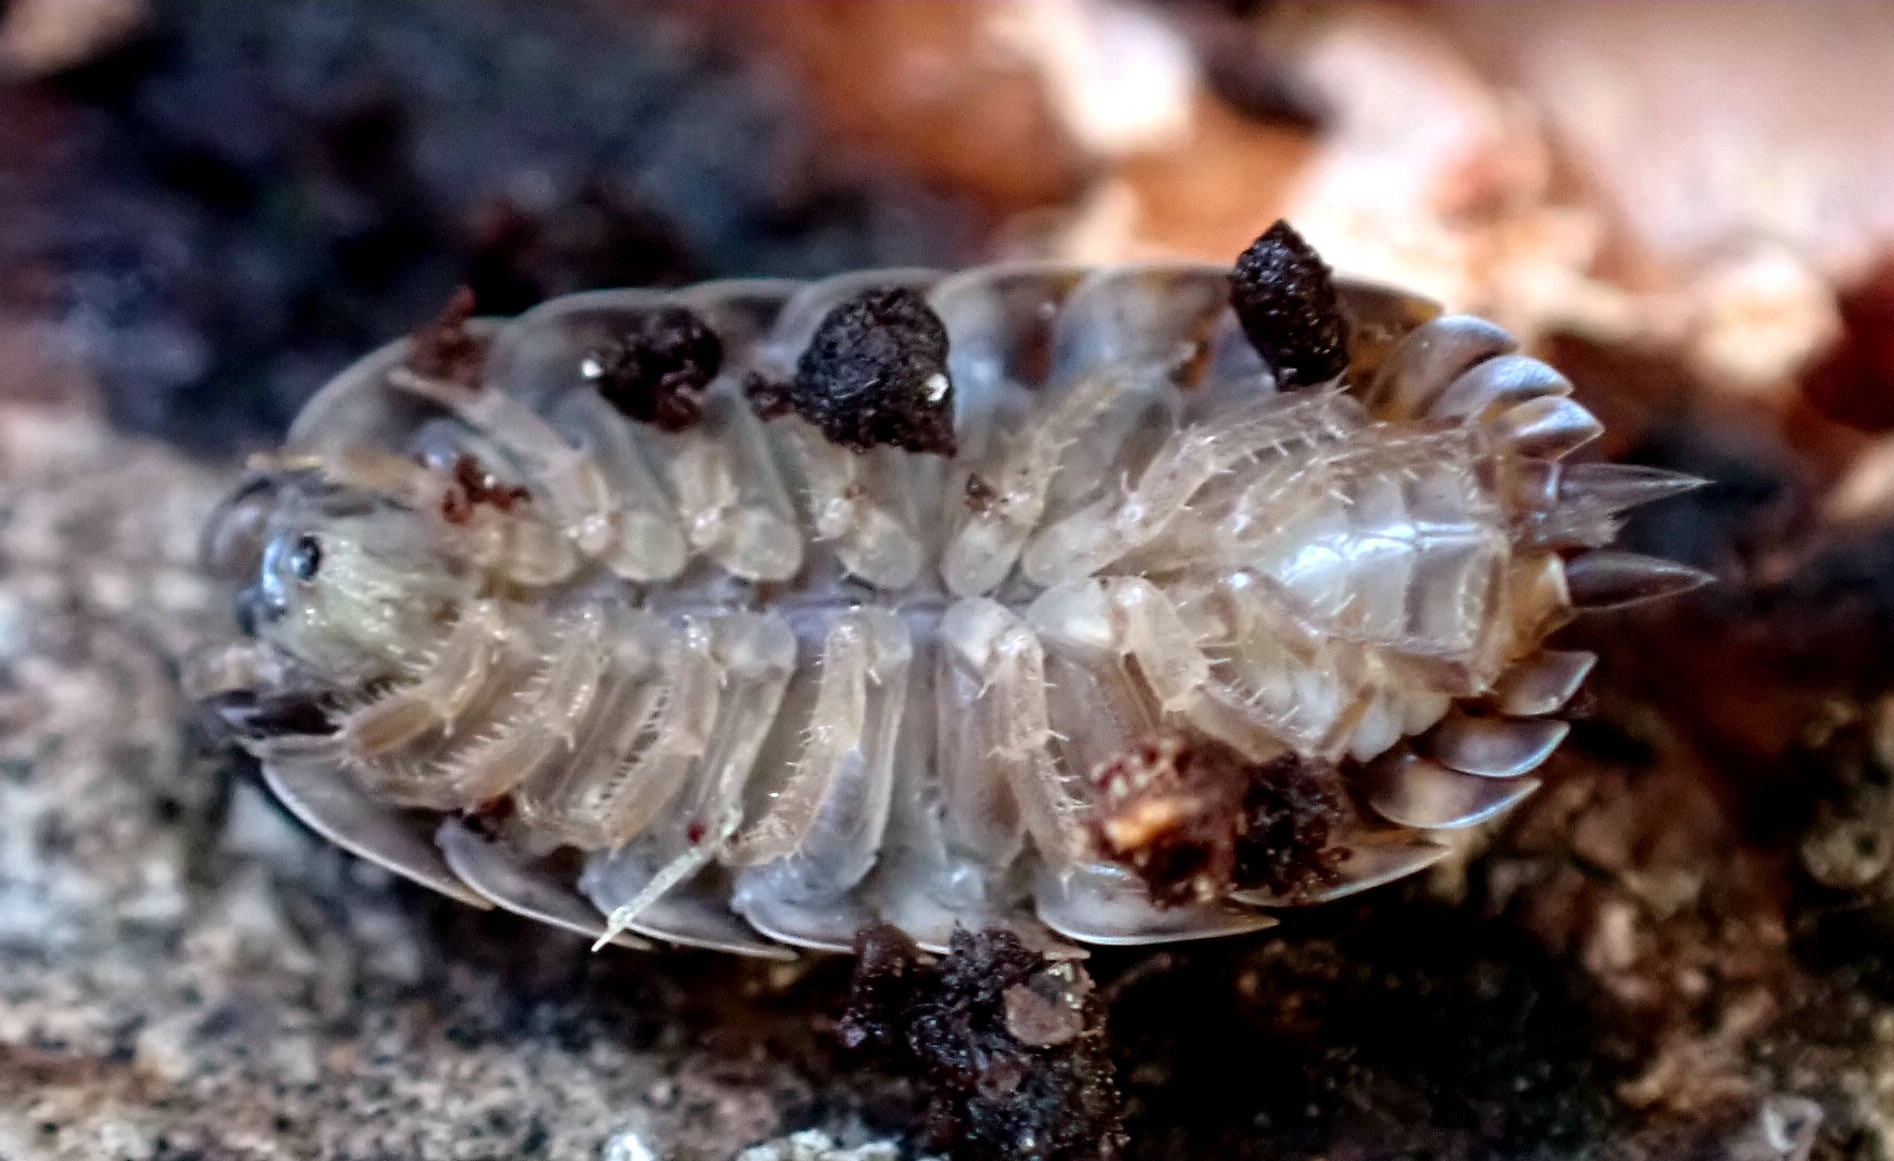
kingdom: Animalia
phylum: Arthropoda
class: Malacostraca
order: Isopoda
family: Trachelipodidae
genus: Trachelipus
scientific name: Trachelipus rathkii
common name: Isopod
